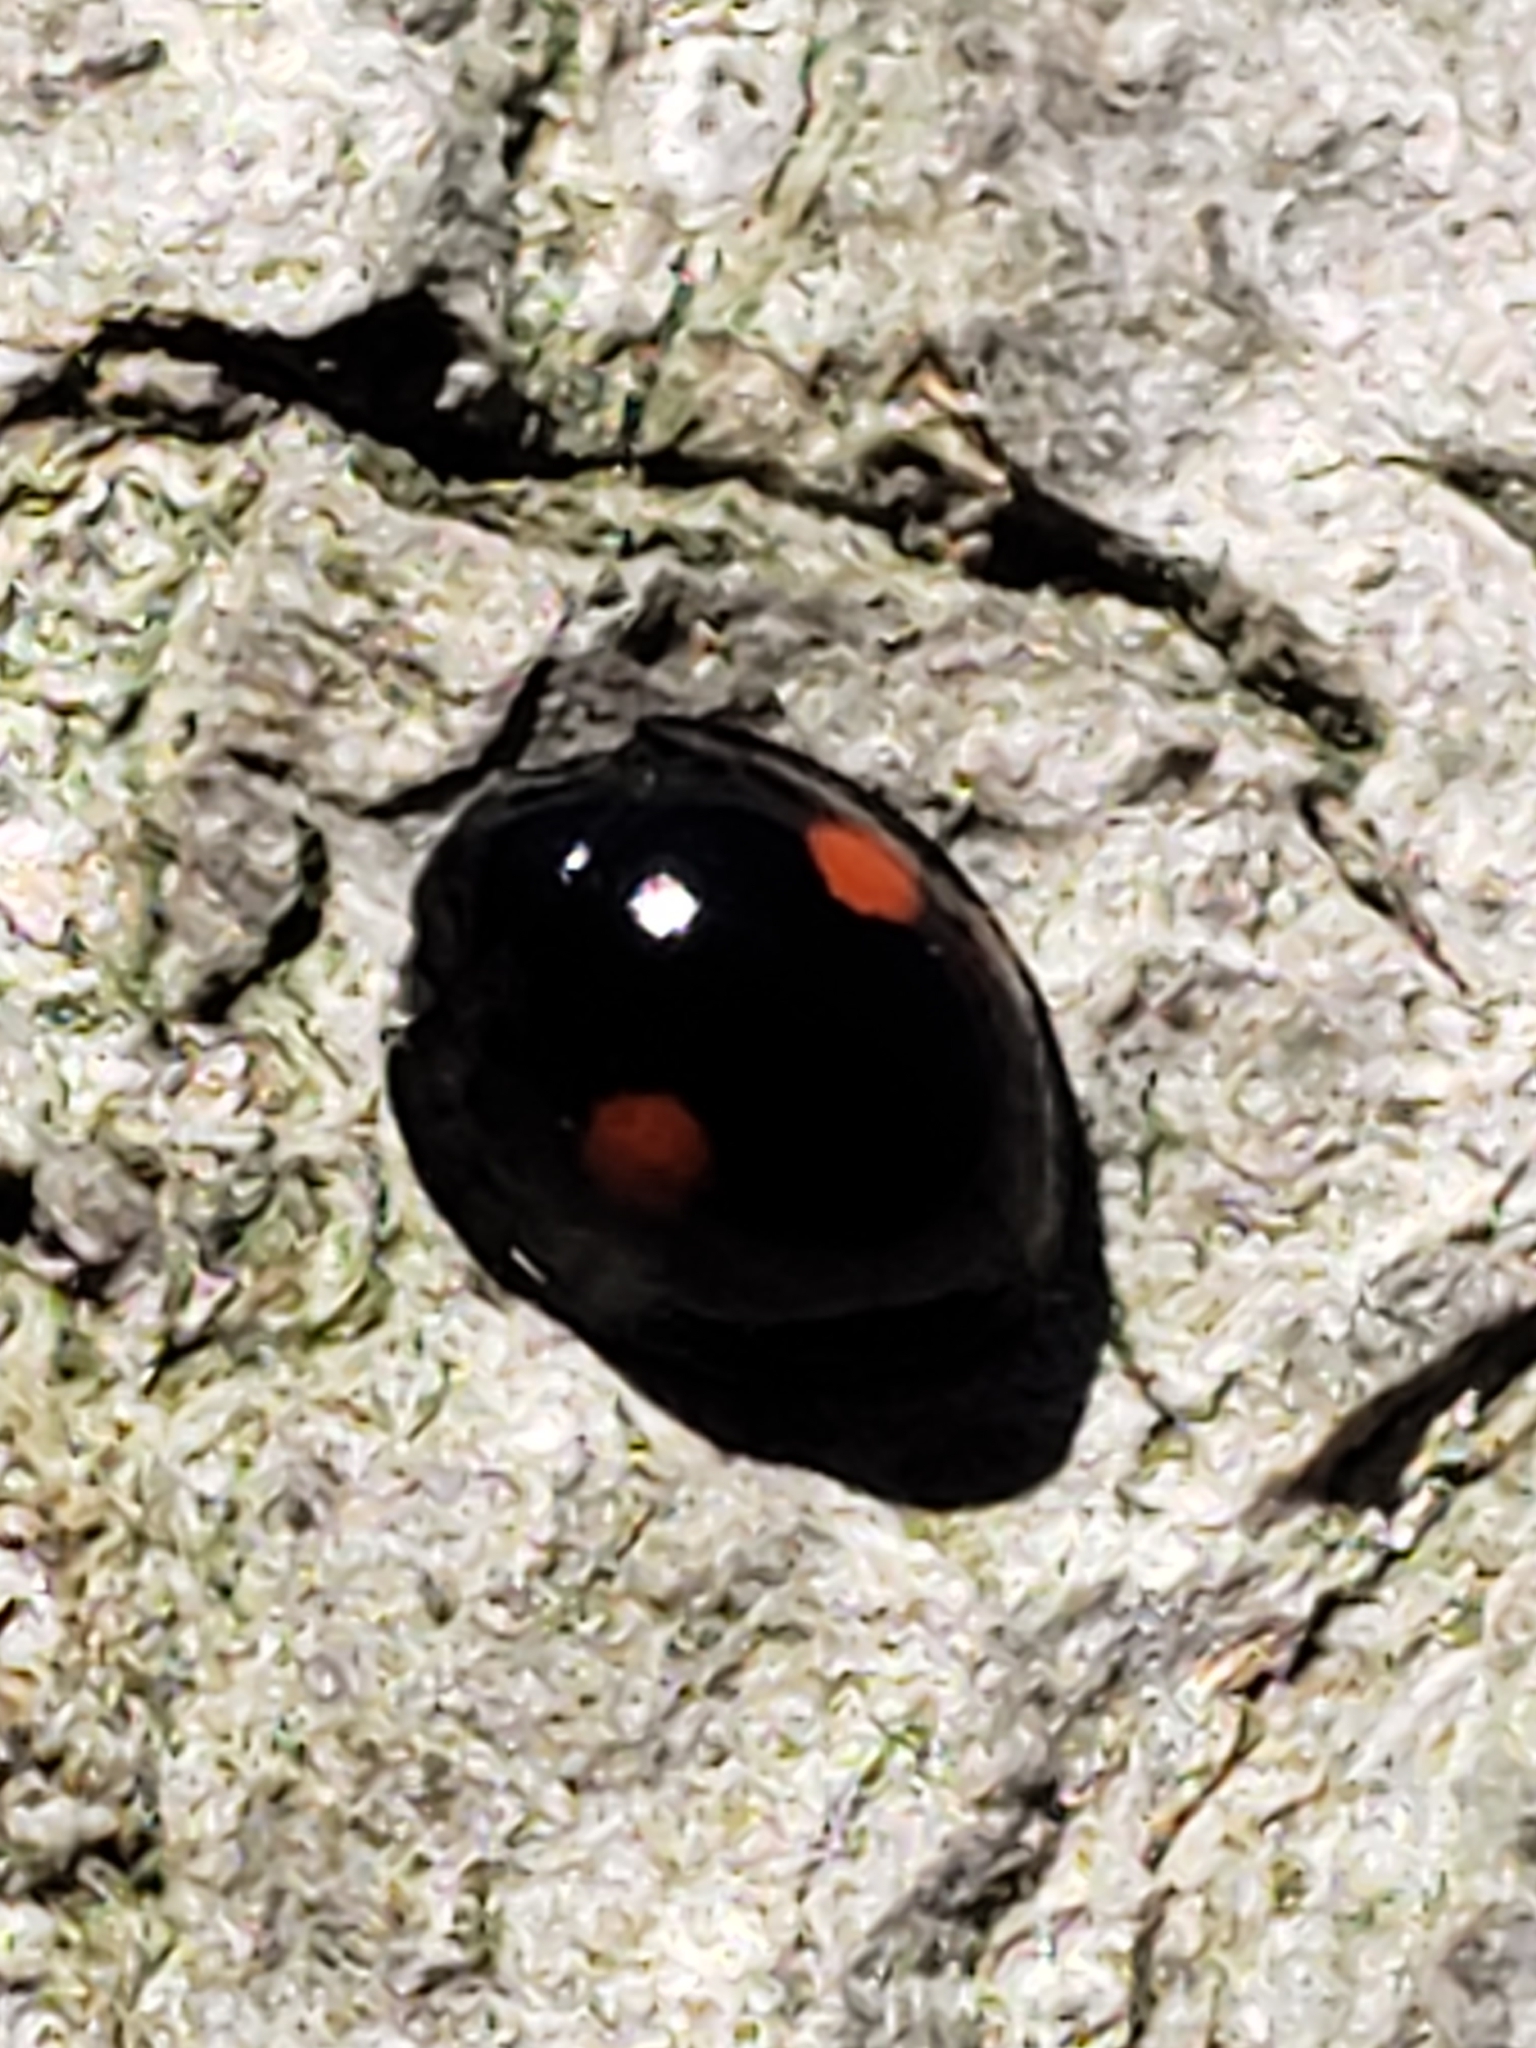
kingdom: Animalia
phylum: Arthropoda
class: Insecta
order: Coleoptera
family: Coccinellidae
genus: Chilocorus
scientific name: Chilocorus stigma
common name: Twicestabbed lady beetle
